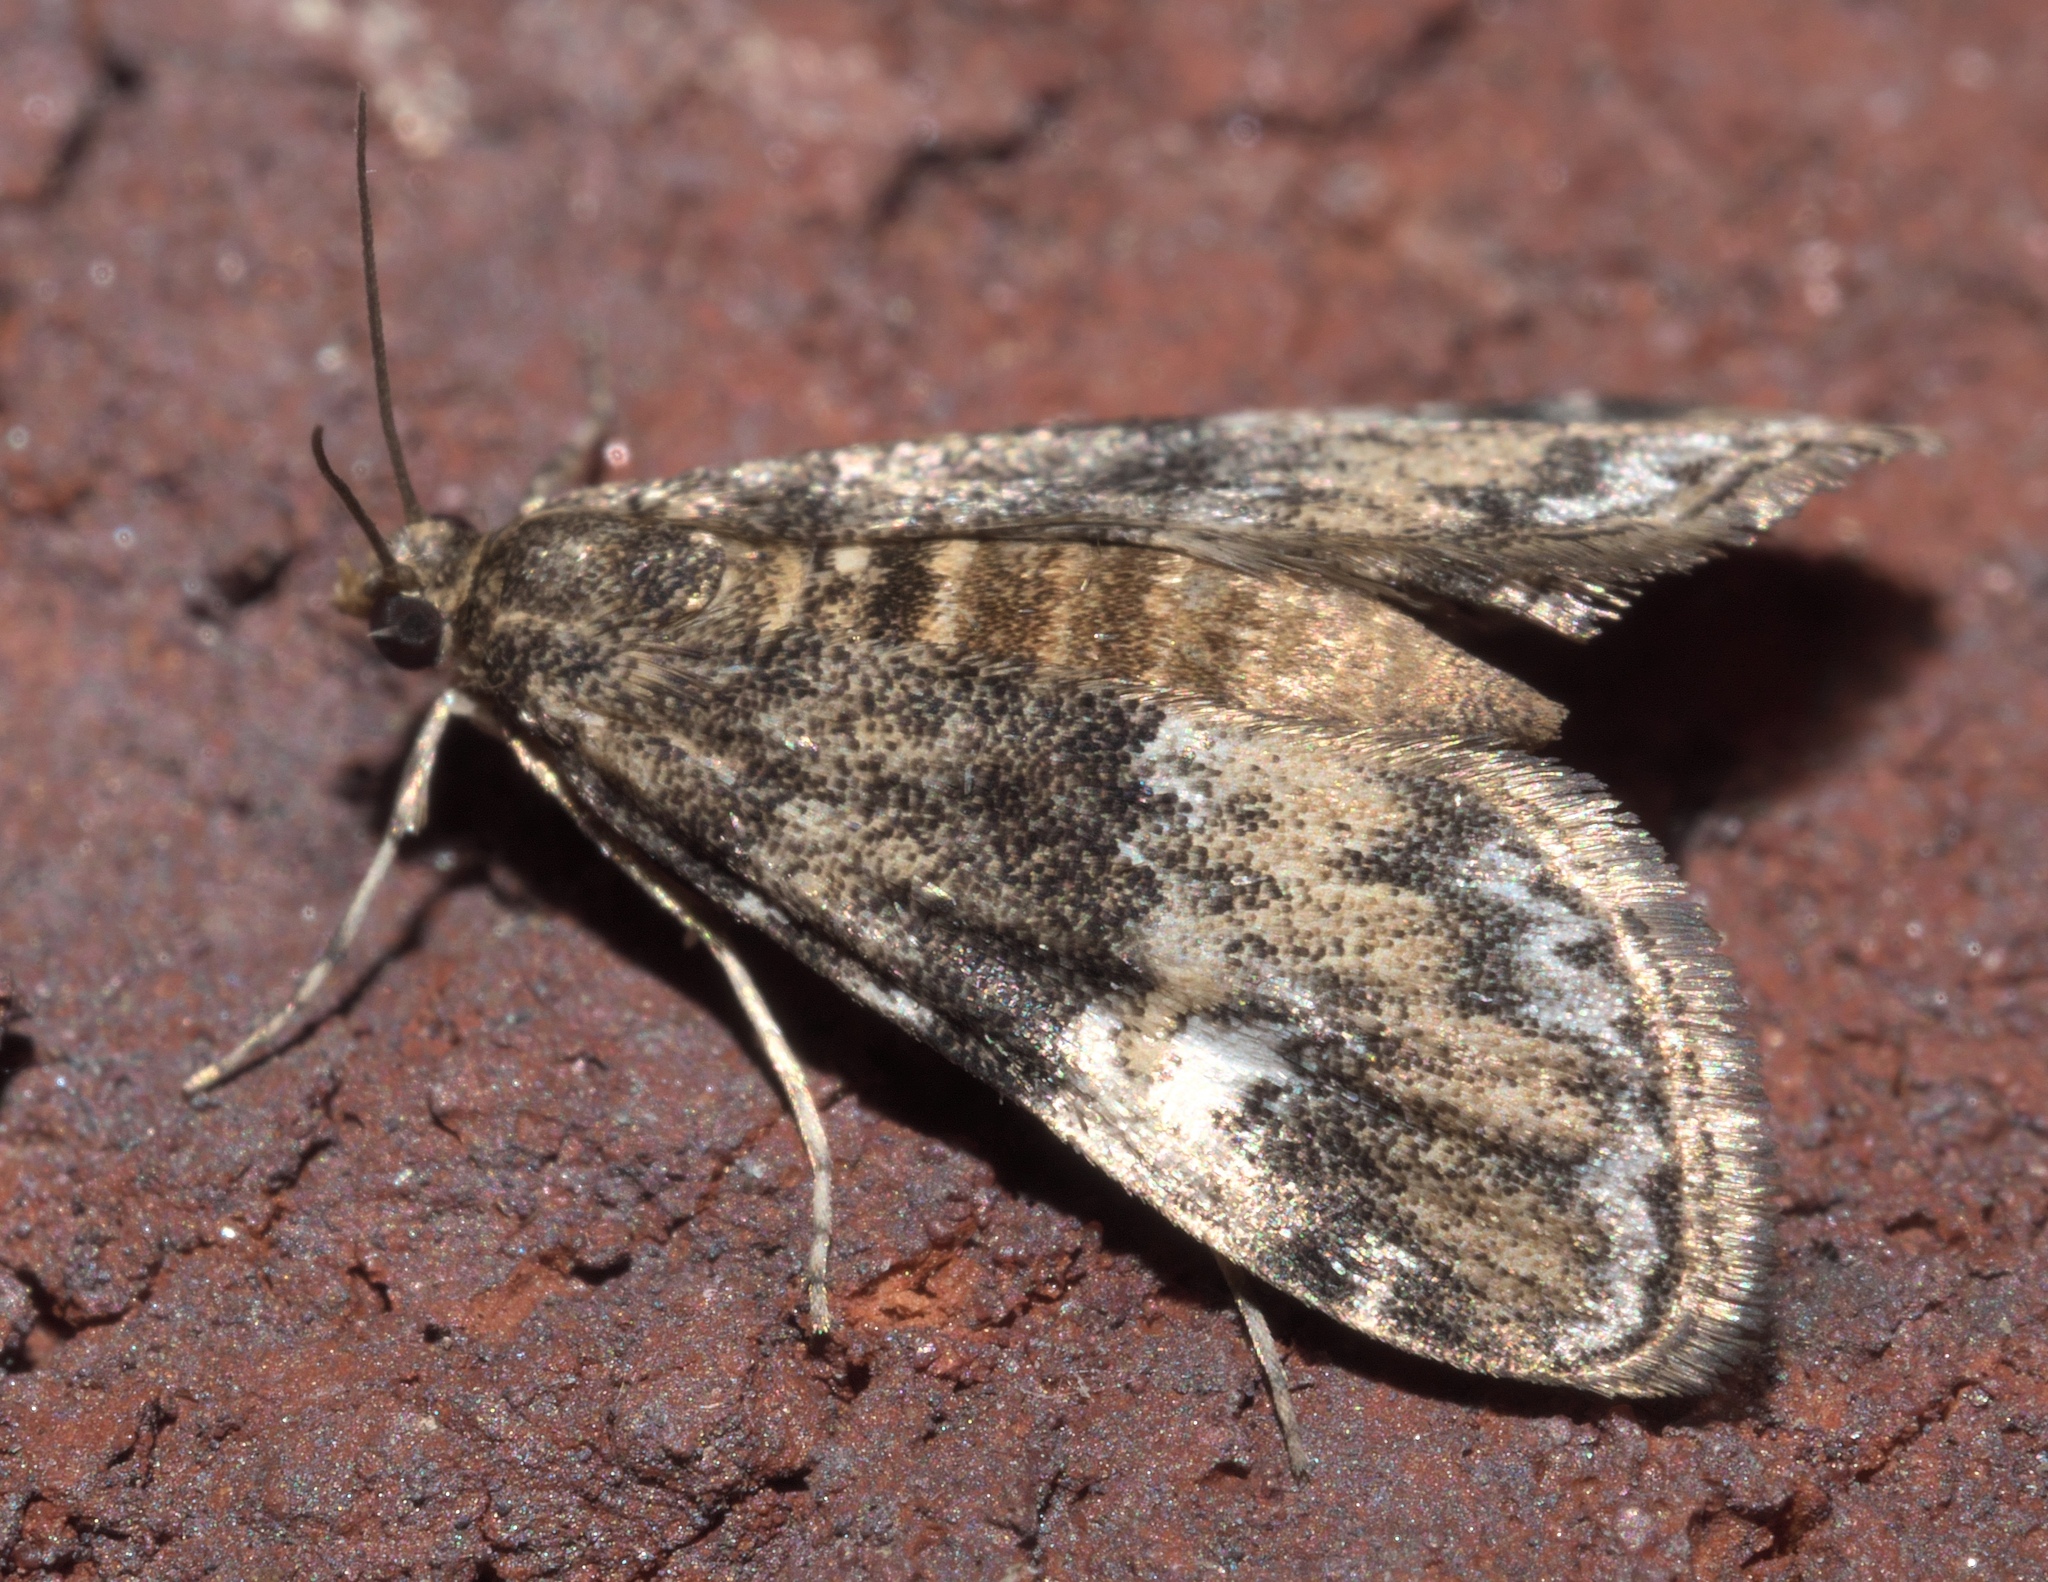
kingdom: Animalia
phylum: Arthropoda
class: Insecta
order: Lepidoptera
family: Crambidae
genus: Elophila
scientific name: Elophila obliteralis
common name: Waterlily leafcutter moth
